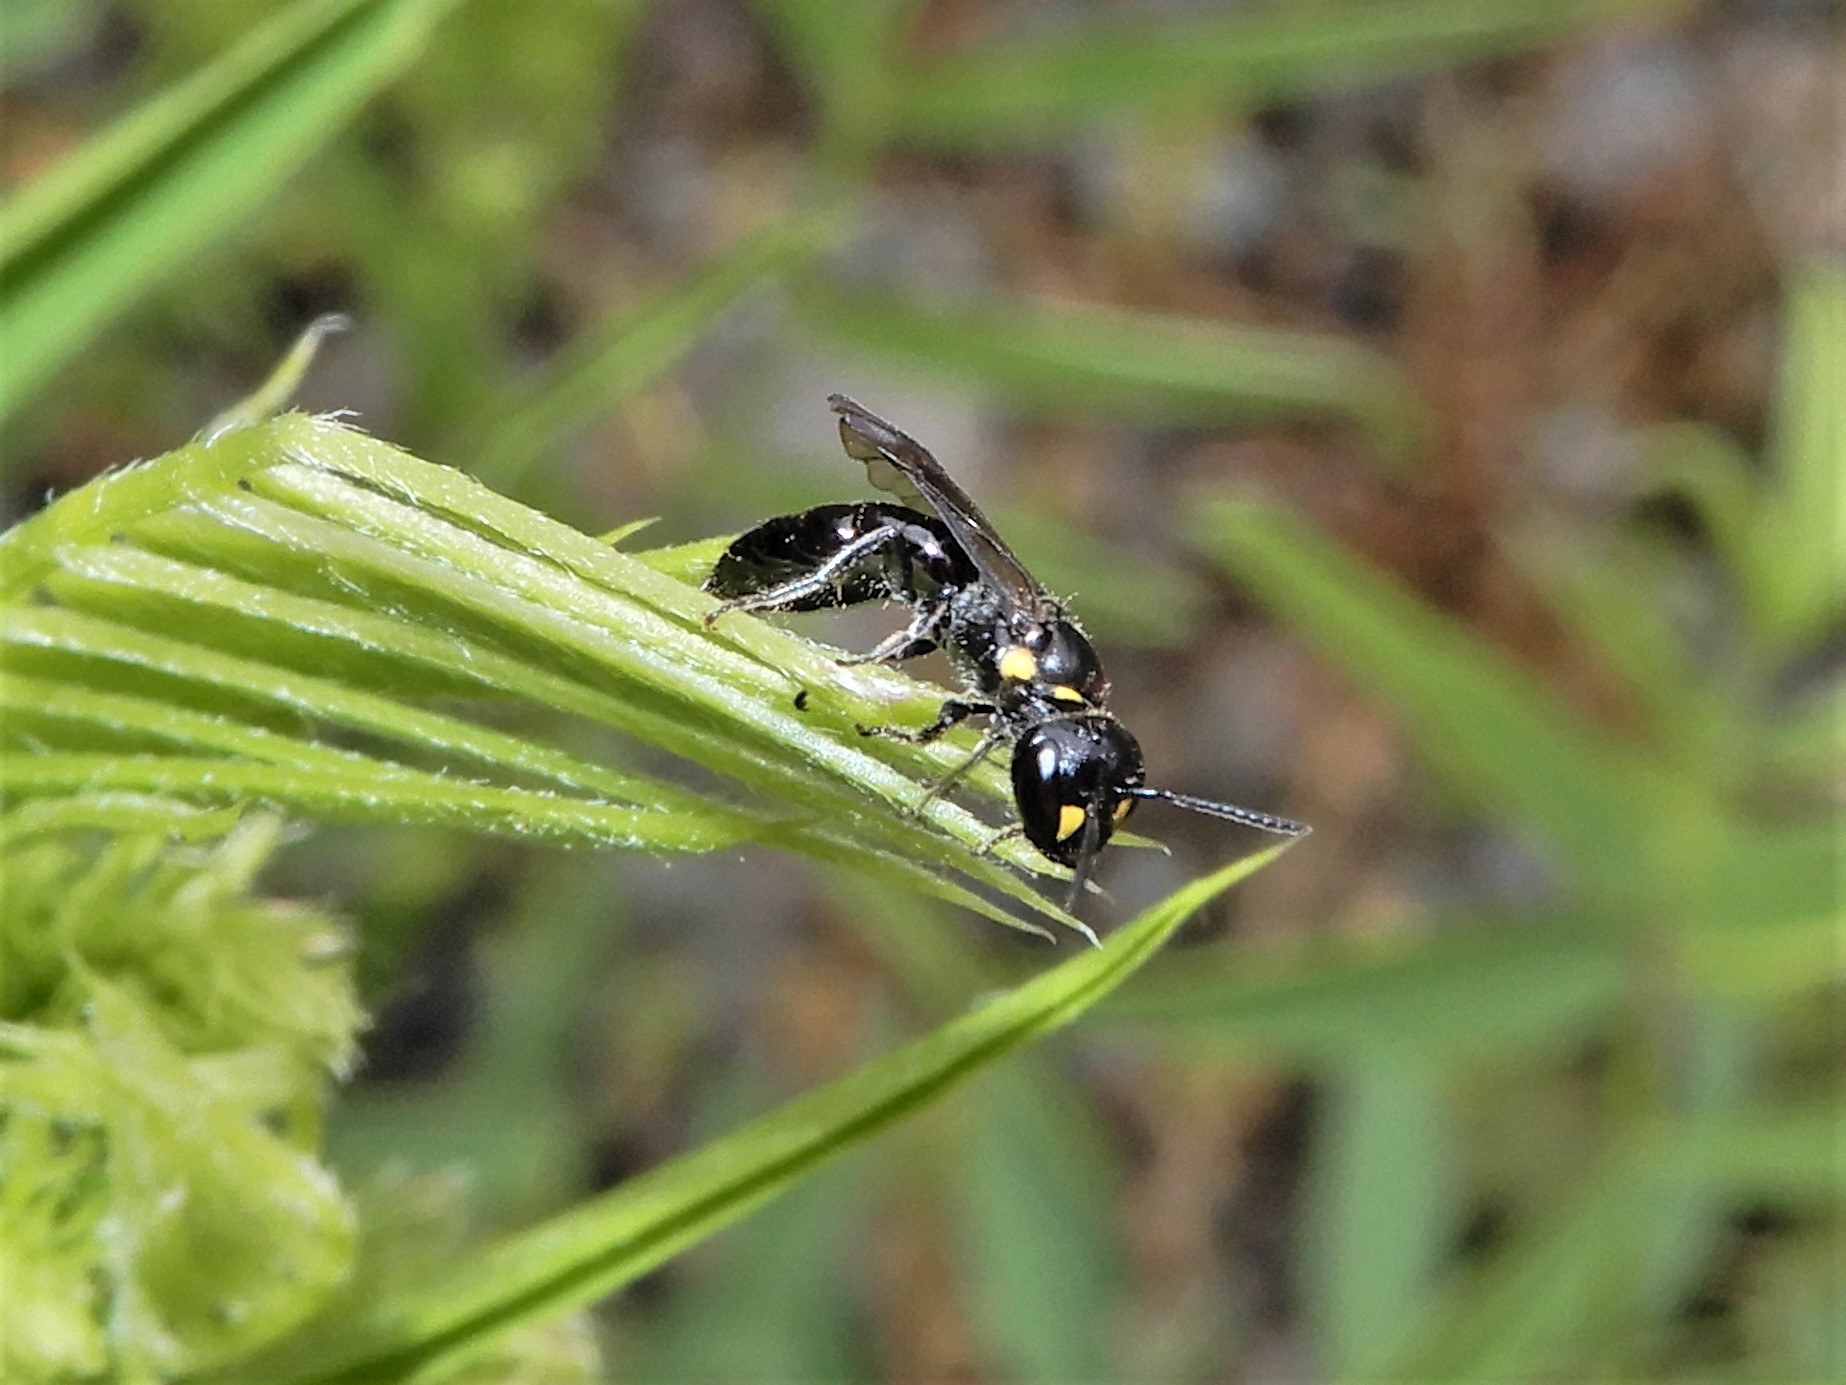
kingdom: Animalia
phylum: Arthropoda
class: Insecta
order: Hymenoptera
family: Colletidae
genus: Hylaeus
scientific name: Hylaeus agilis
